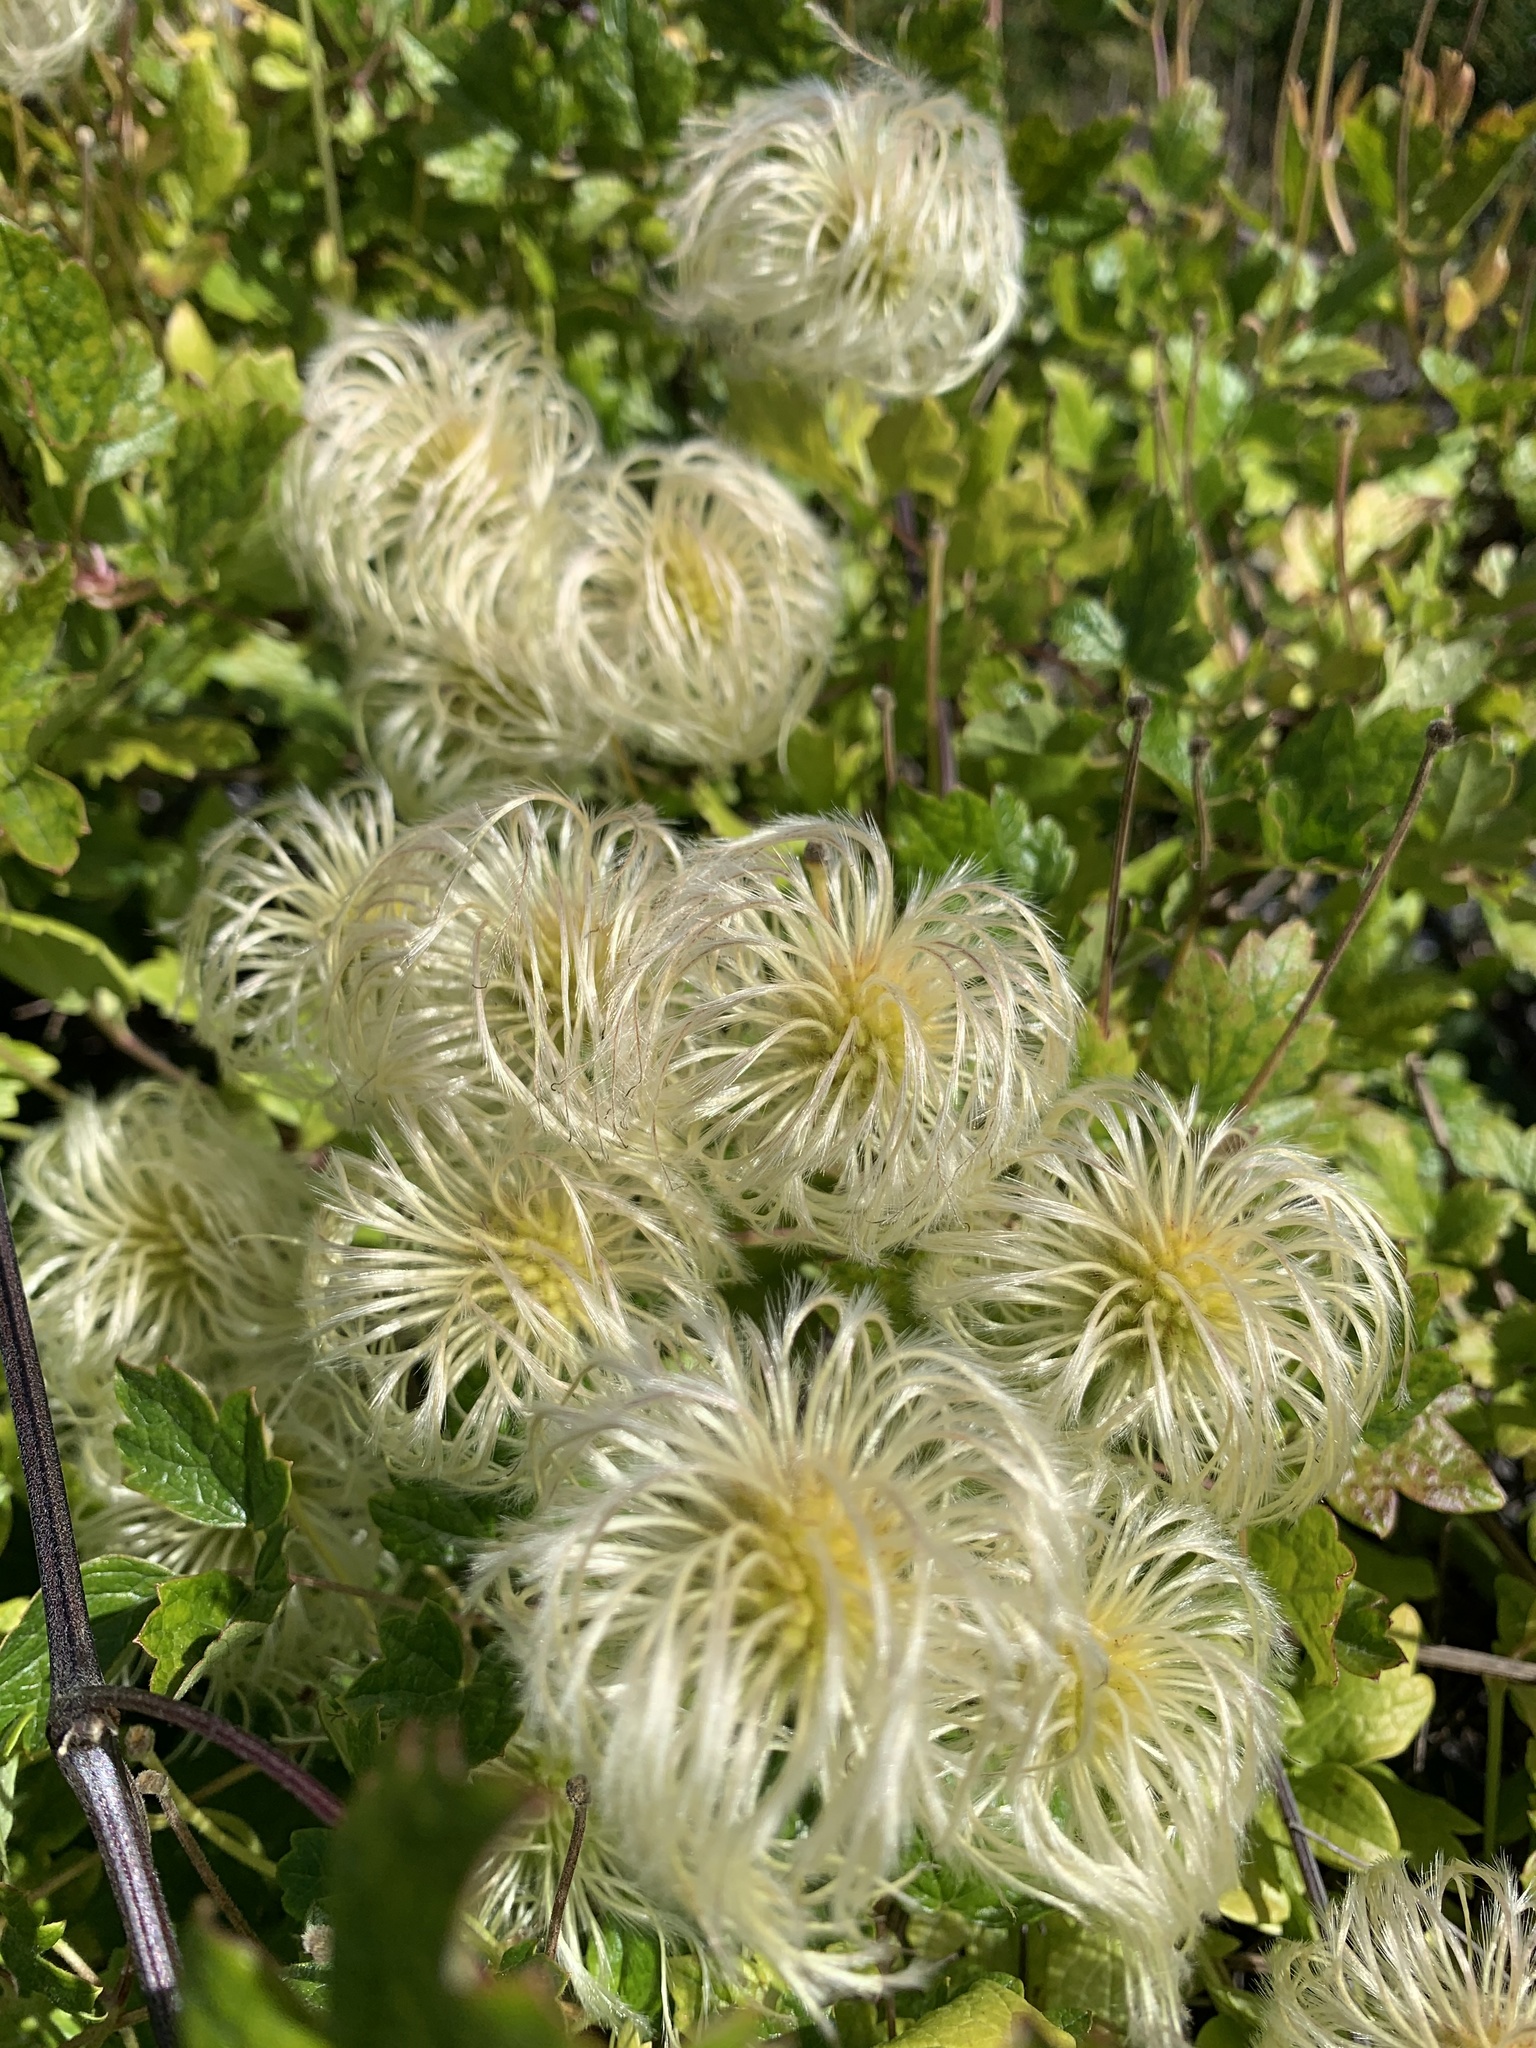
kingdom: Plantae
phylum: Tracheophyta
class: Magnoliopsida
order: Ranunculales
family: Ranunculaceae
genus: Clematis
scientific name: Clematis lasiantha
